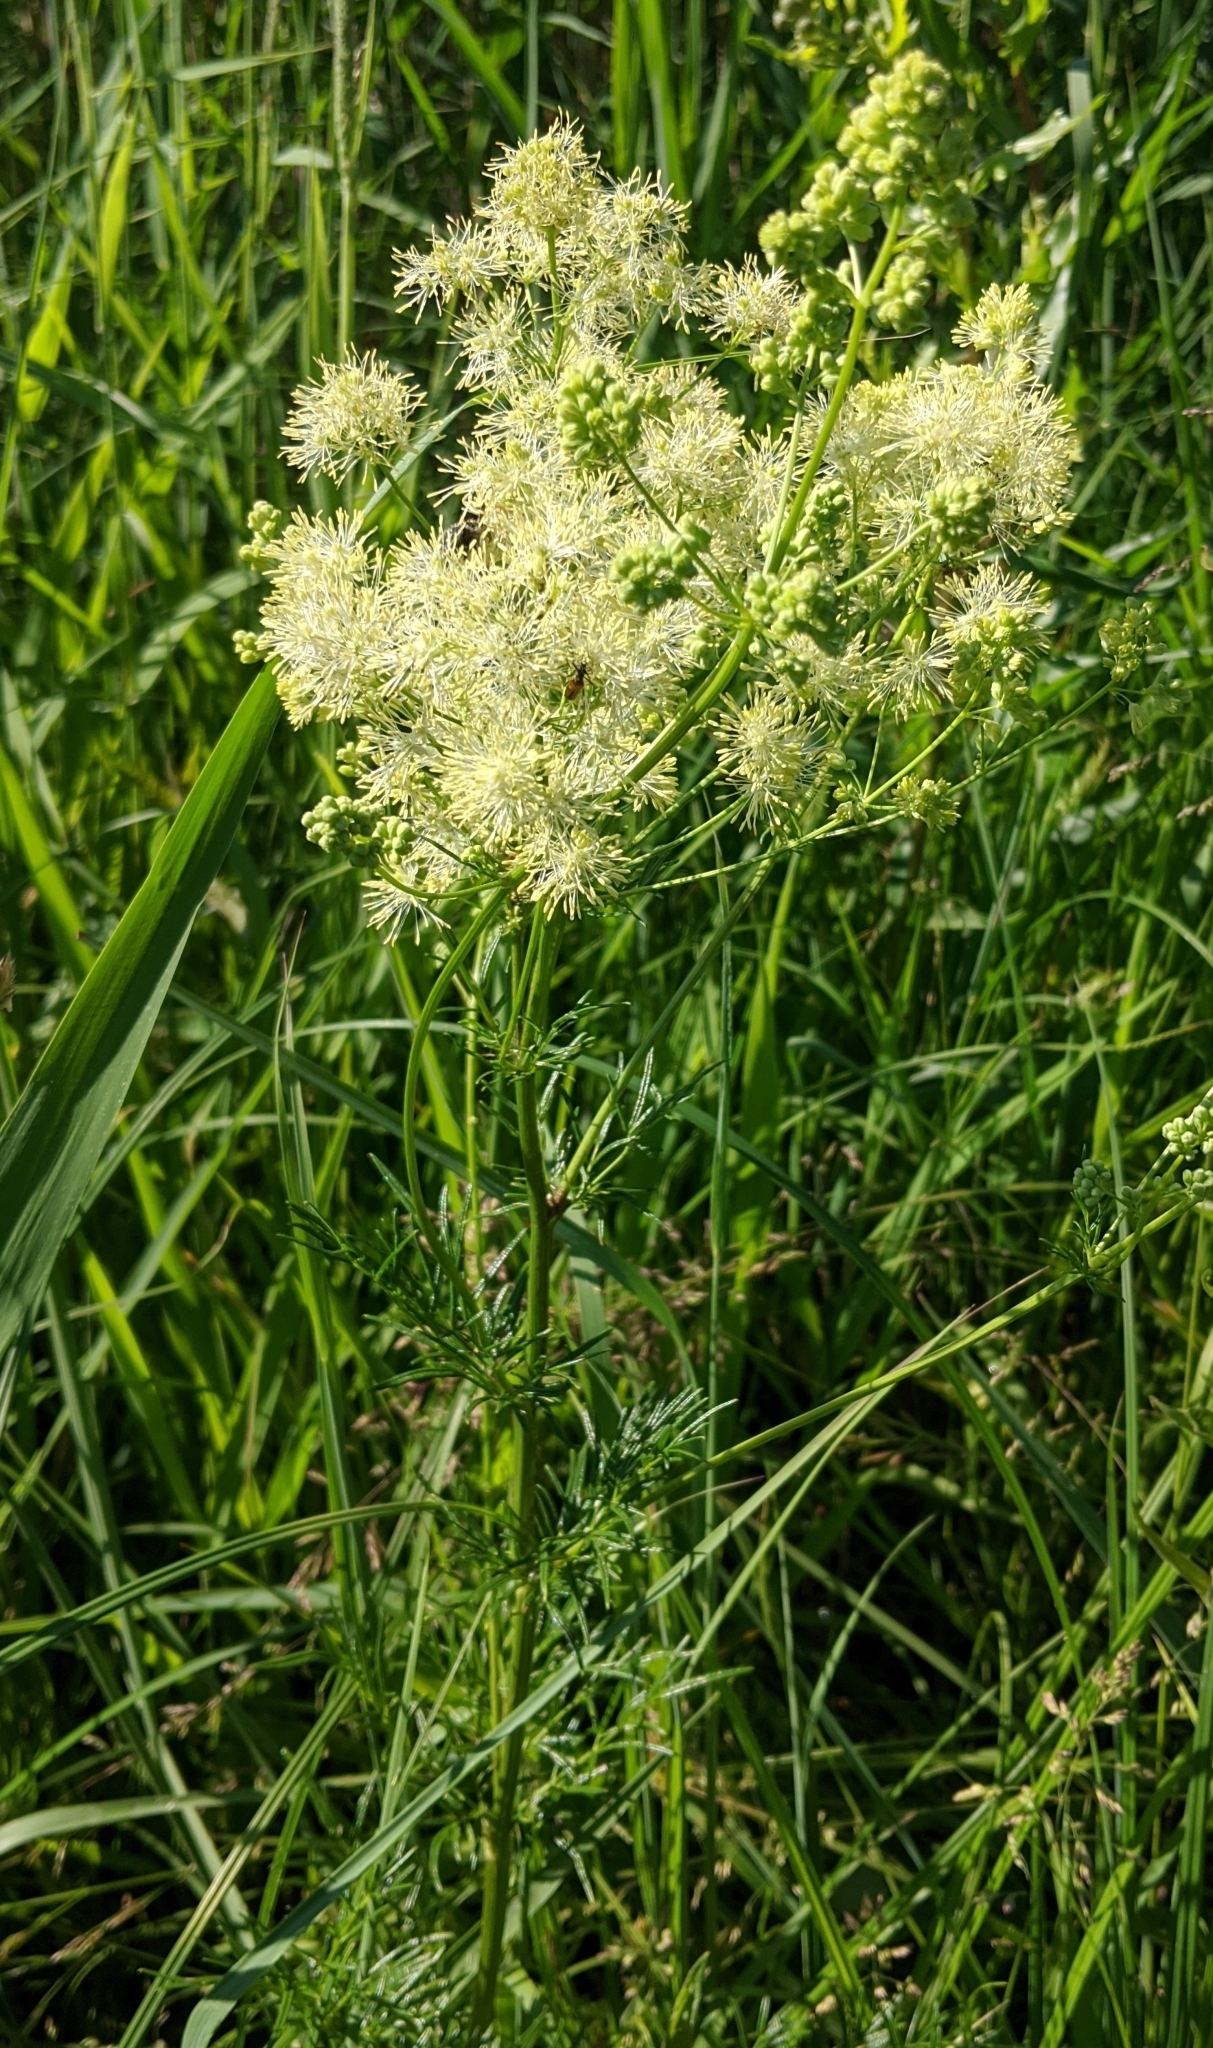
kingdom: Plantae
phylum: Tracheophyta
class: Magnoliopsida
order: Ranunculales
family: Ranunculaceae
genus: Thalictrum
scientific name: Thalictrum lucidum
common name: Shining meadow-rue
